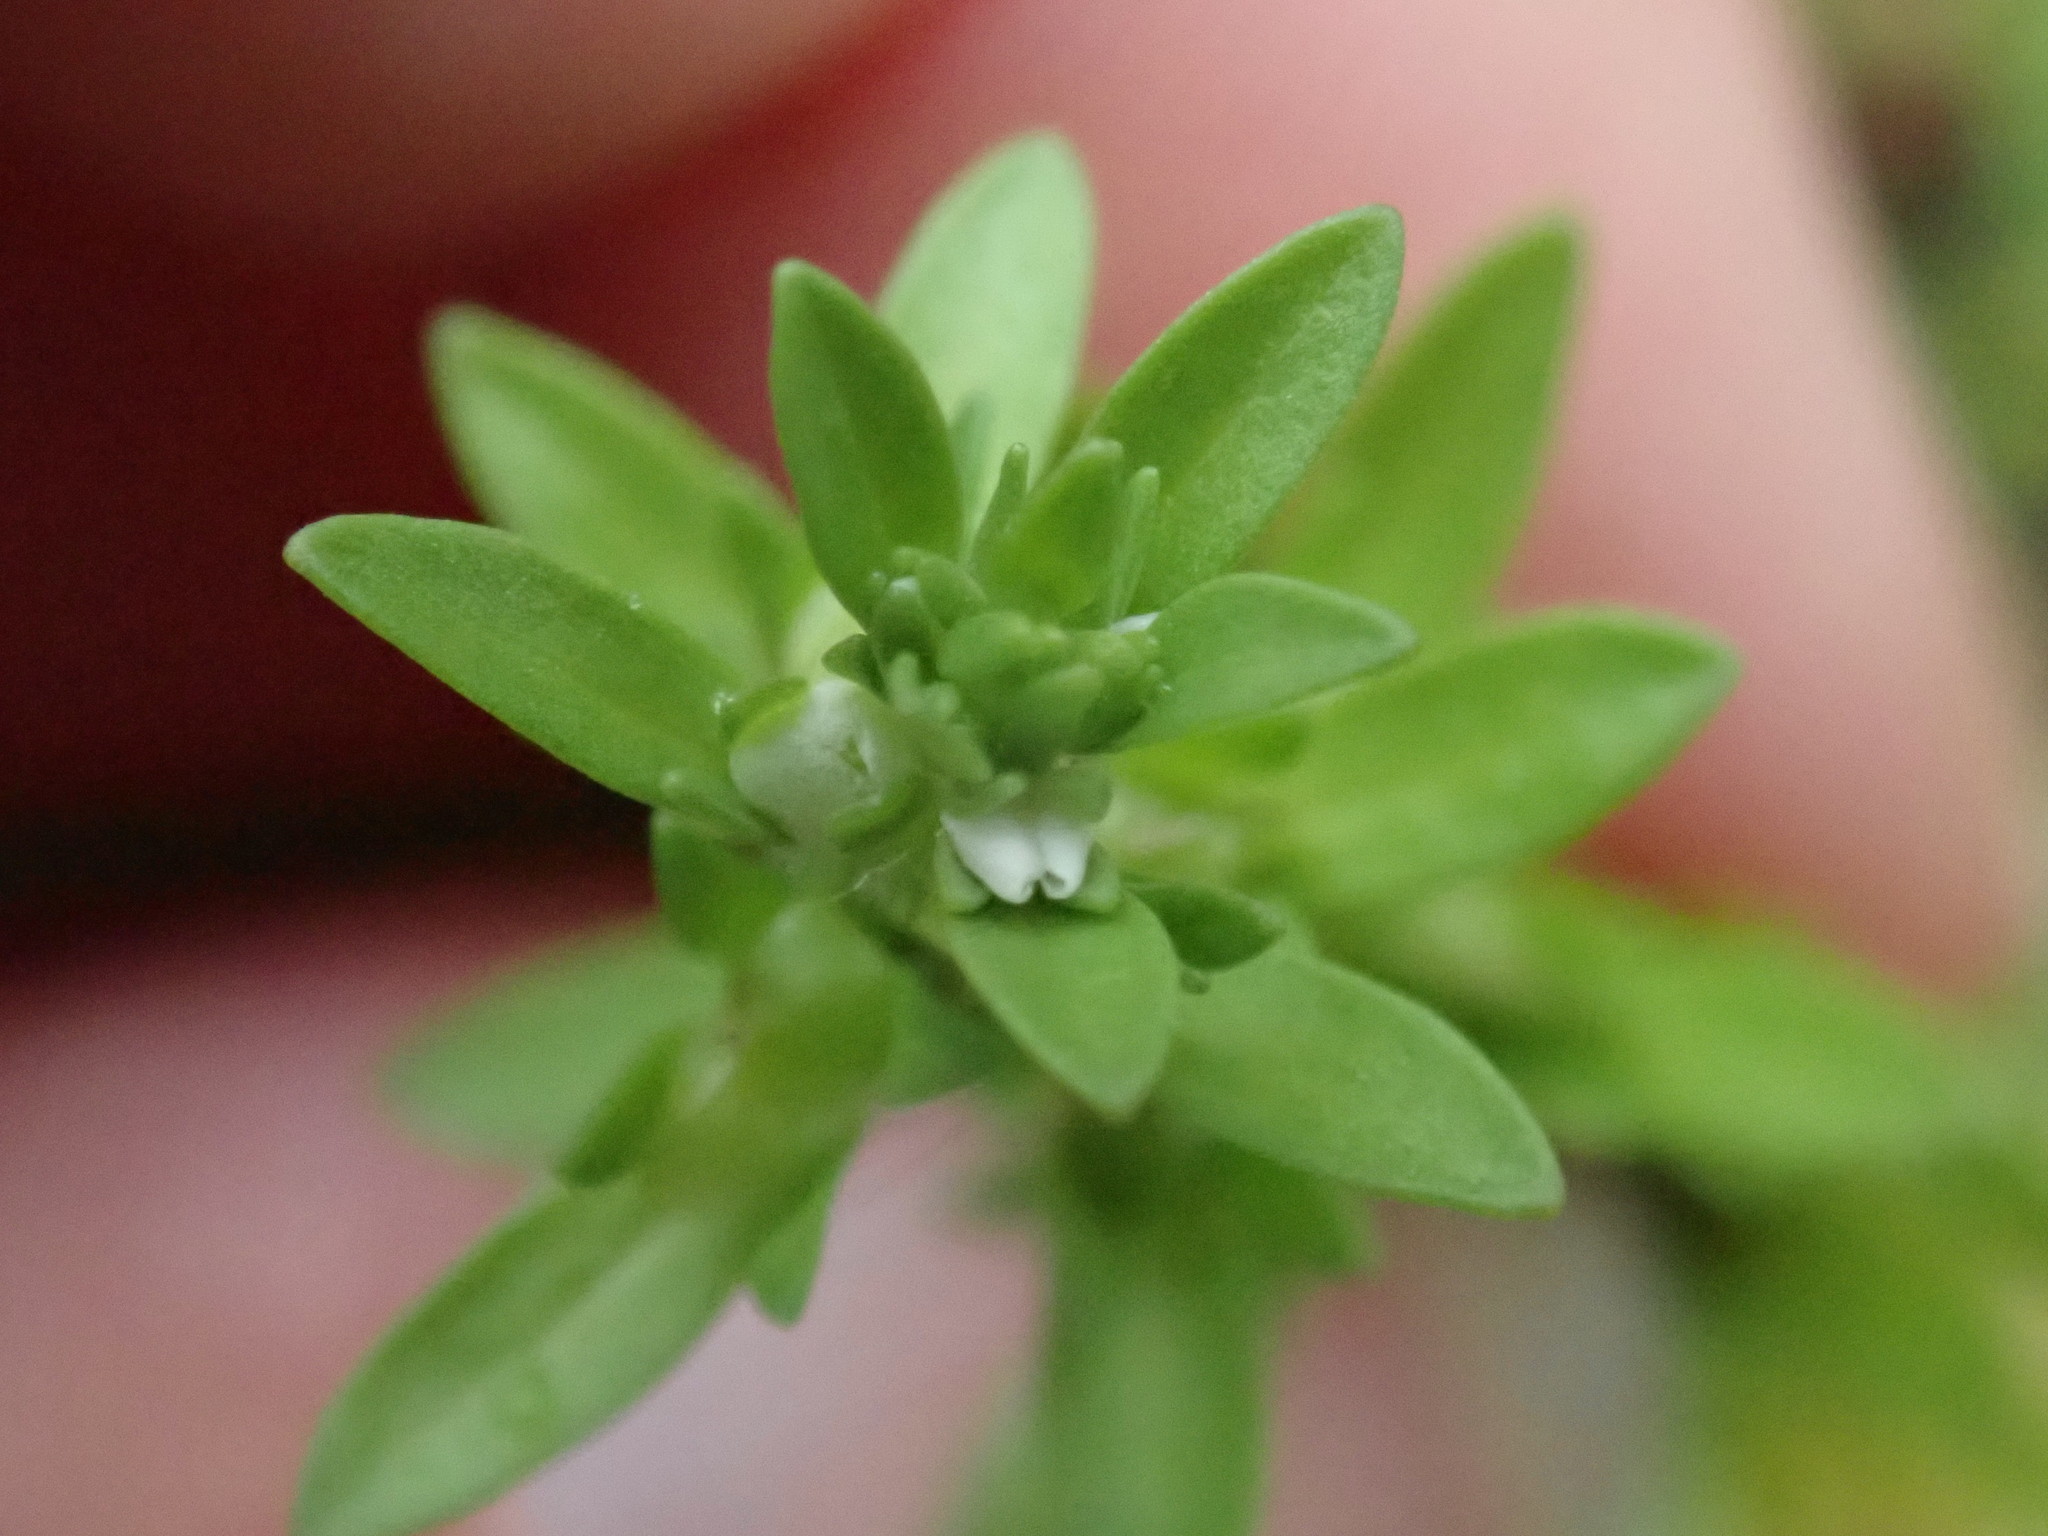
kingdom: Plantae
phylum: Tracheophyta
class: Magnoliopsida
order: Lamiales
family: Plantaginaceae
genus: Veronica
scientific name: Veronica peregrina
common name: Neckweed
